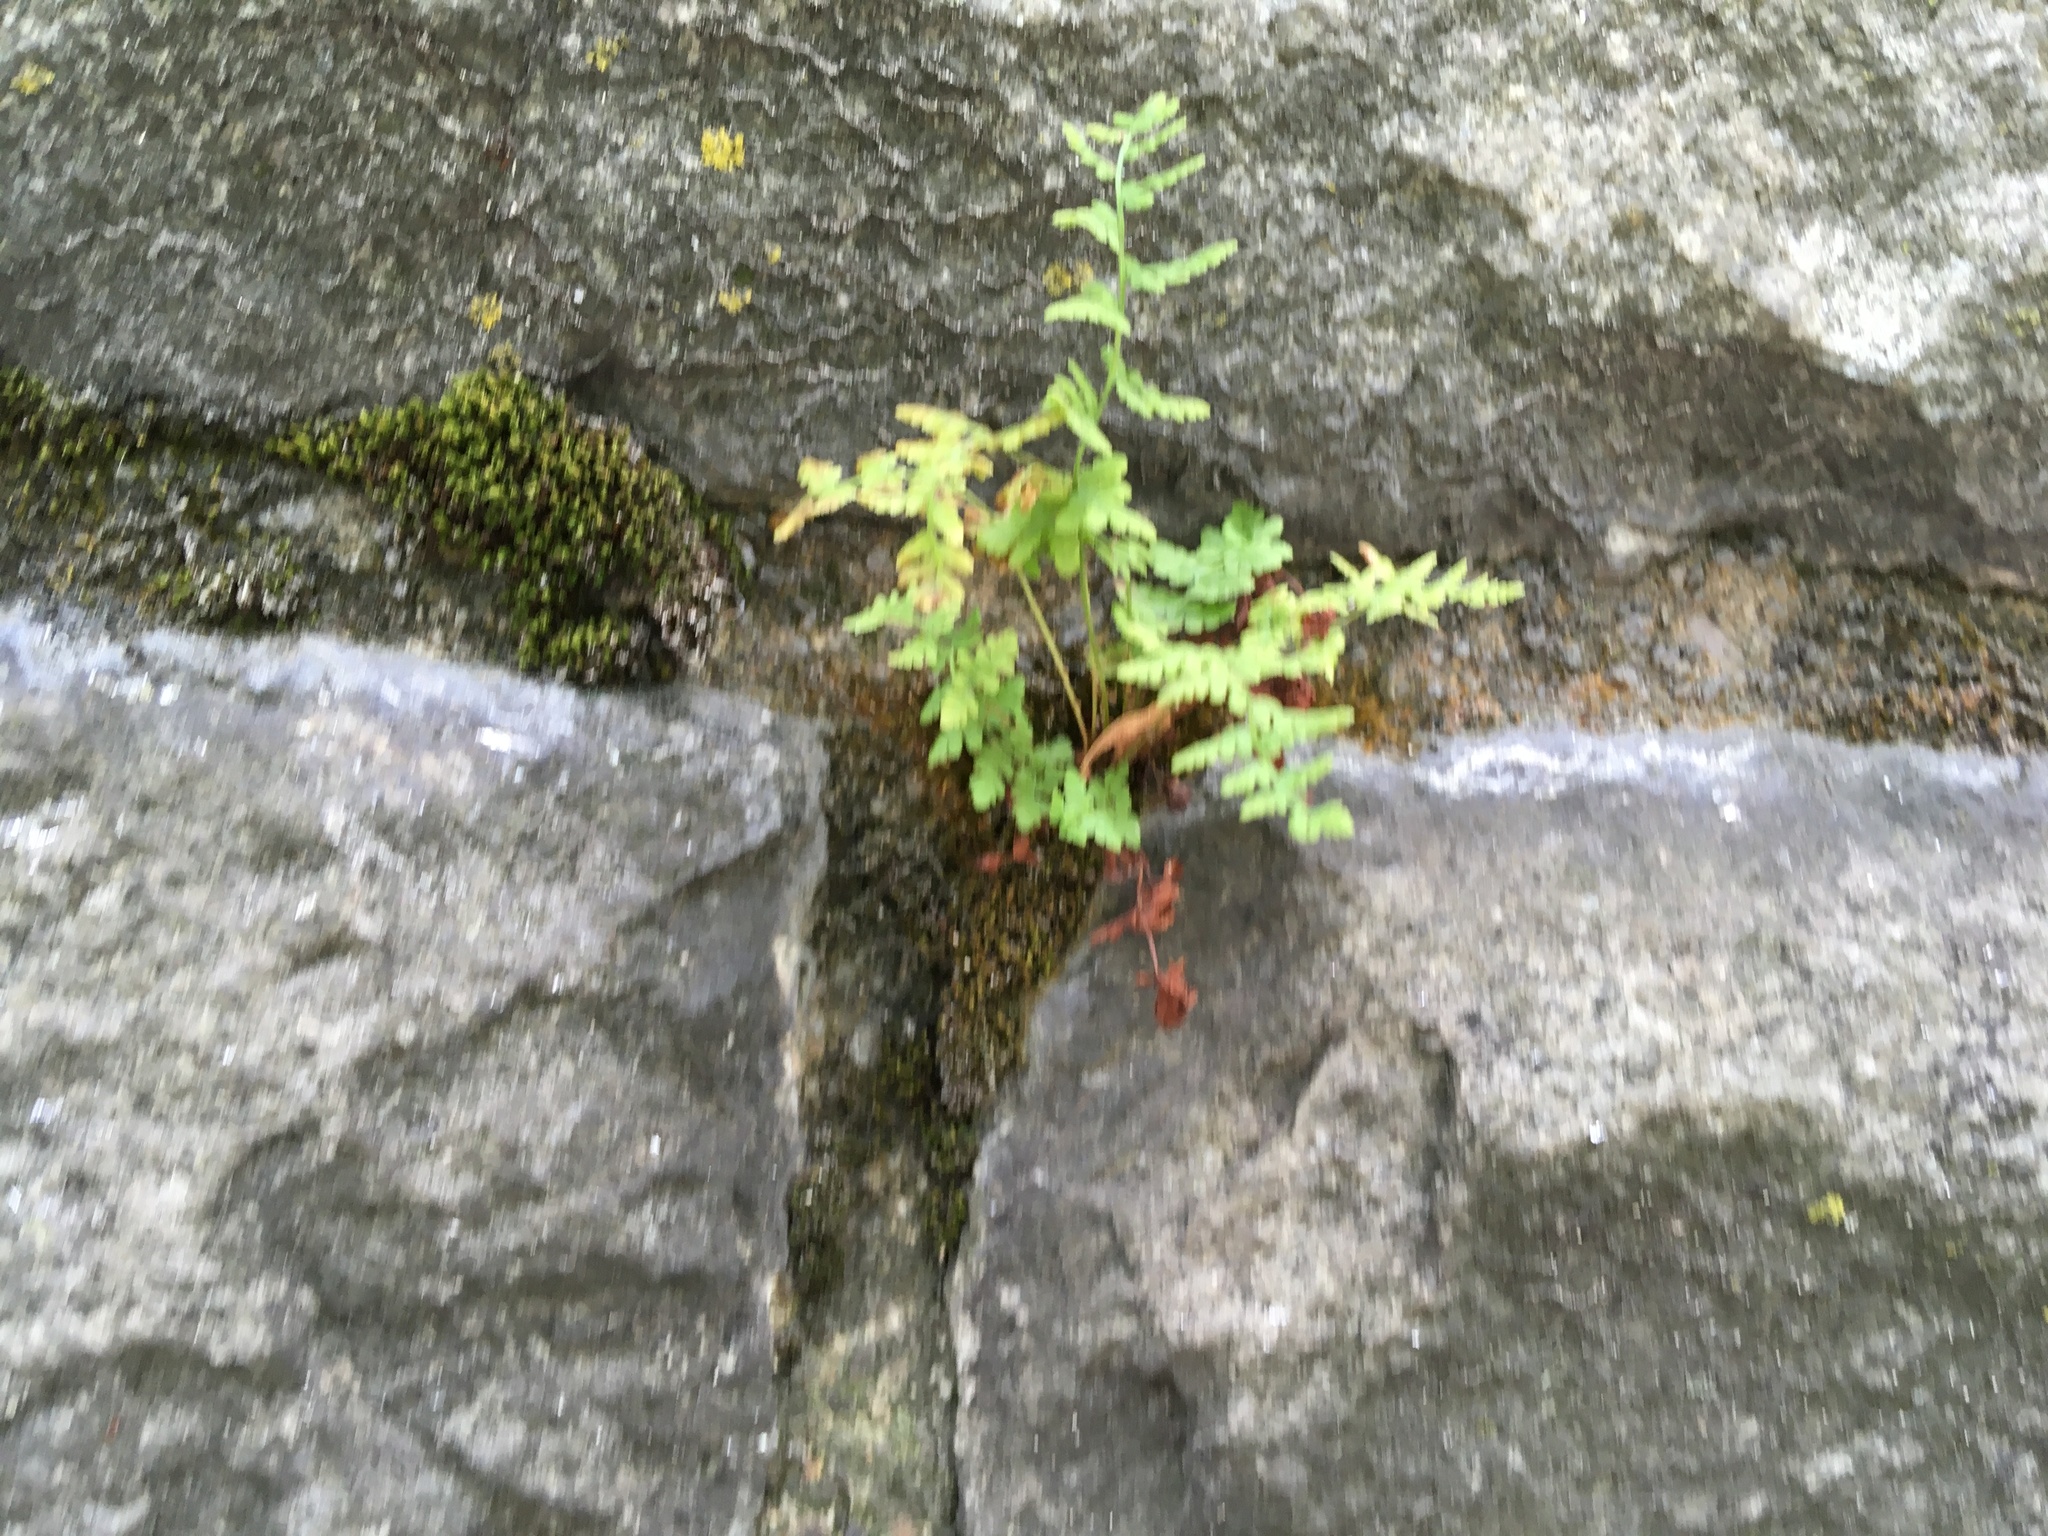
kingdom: Plantae
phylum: Tracheophyta
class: Polypodiopsida
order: Polypodiales
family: Woodsiaceae
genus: Physematium
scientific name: Physematium obtusum
